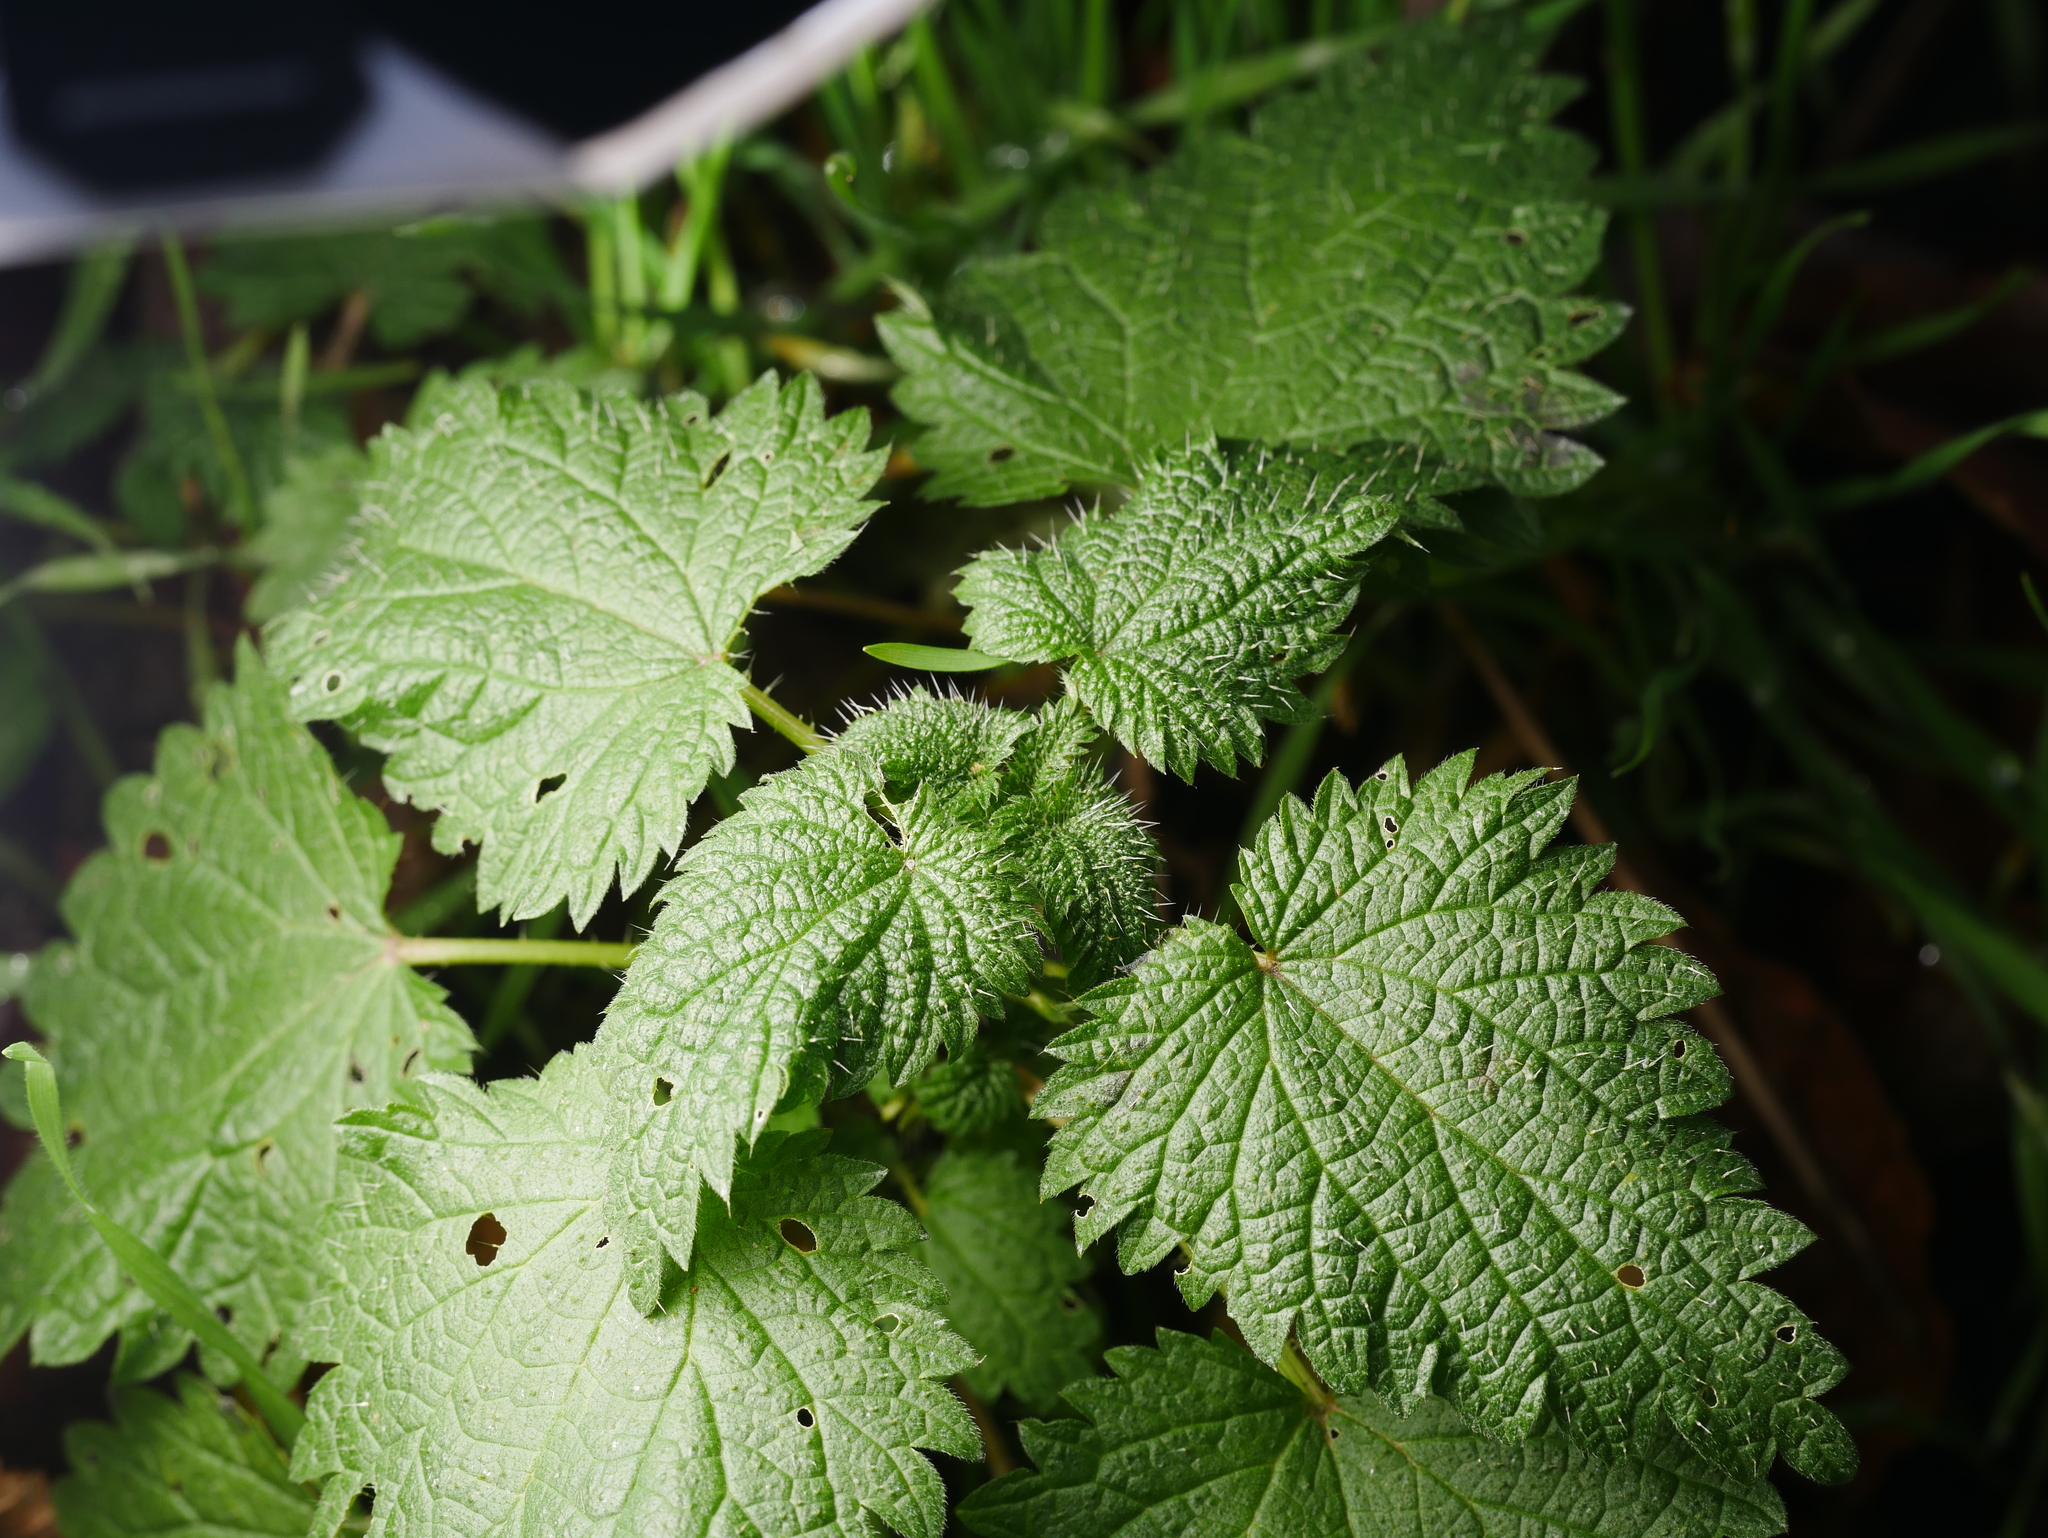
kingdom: Plantae
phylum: Tracheophyta
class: Magnoliopsida
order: Rosales
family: Urticaceae
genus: Urtica
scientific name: Urtica dioica
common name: Common nettle
